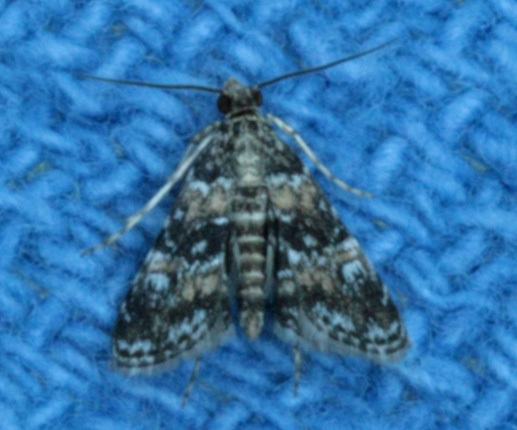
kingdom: Animalia
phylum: Arthropoda
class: Insecta
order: Lepidoptera
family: Crambidae
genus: Elophila
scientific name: Elophila obliteralis
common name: Waterlily leafcutter moth
